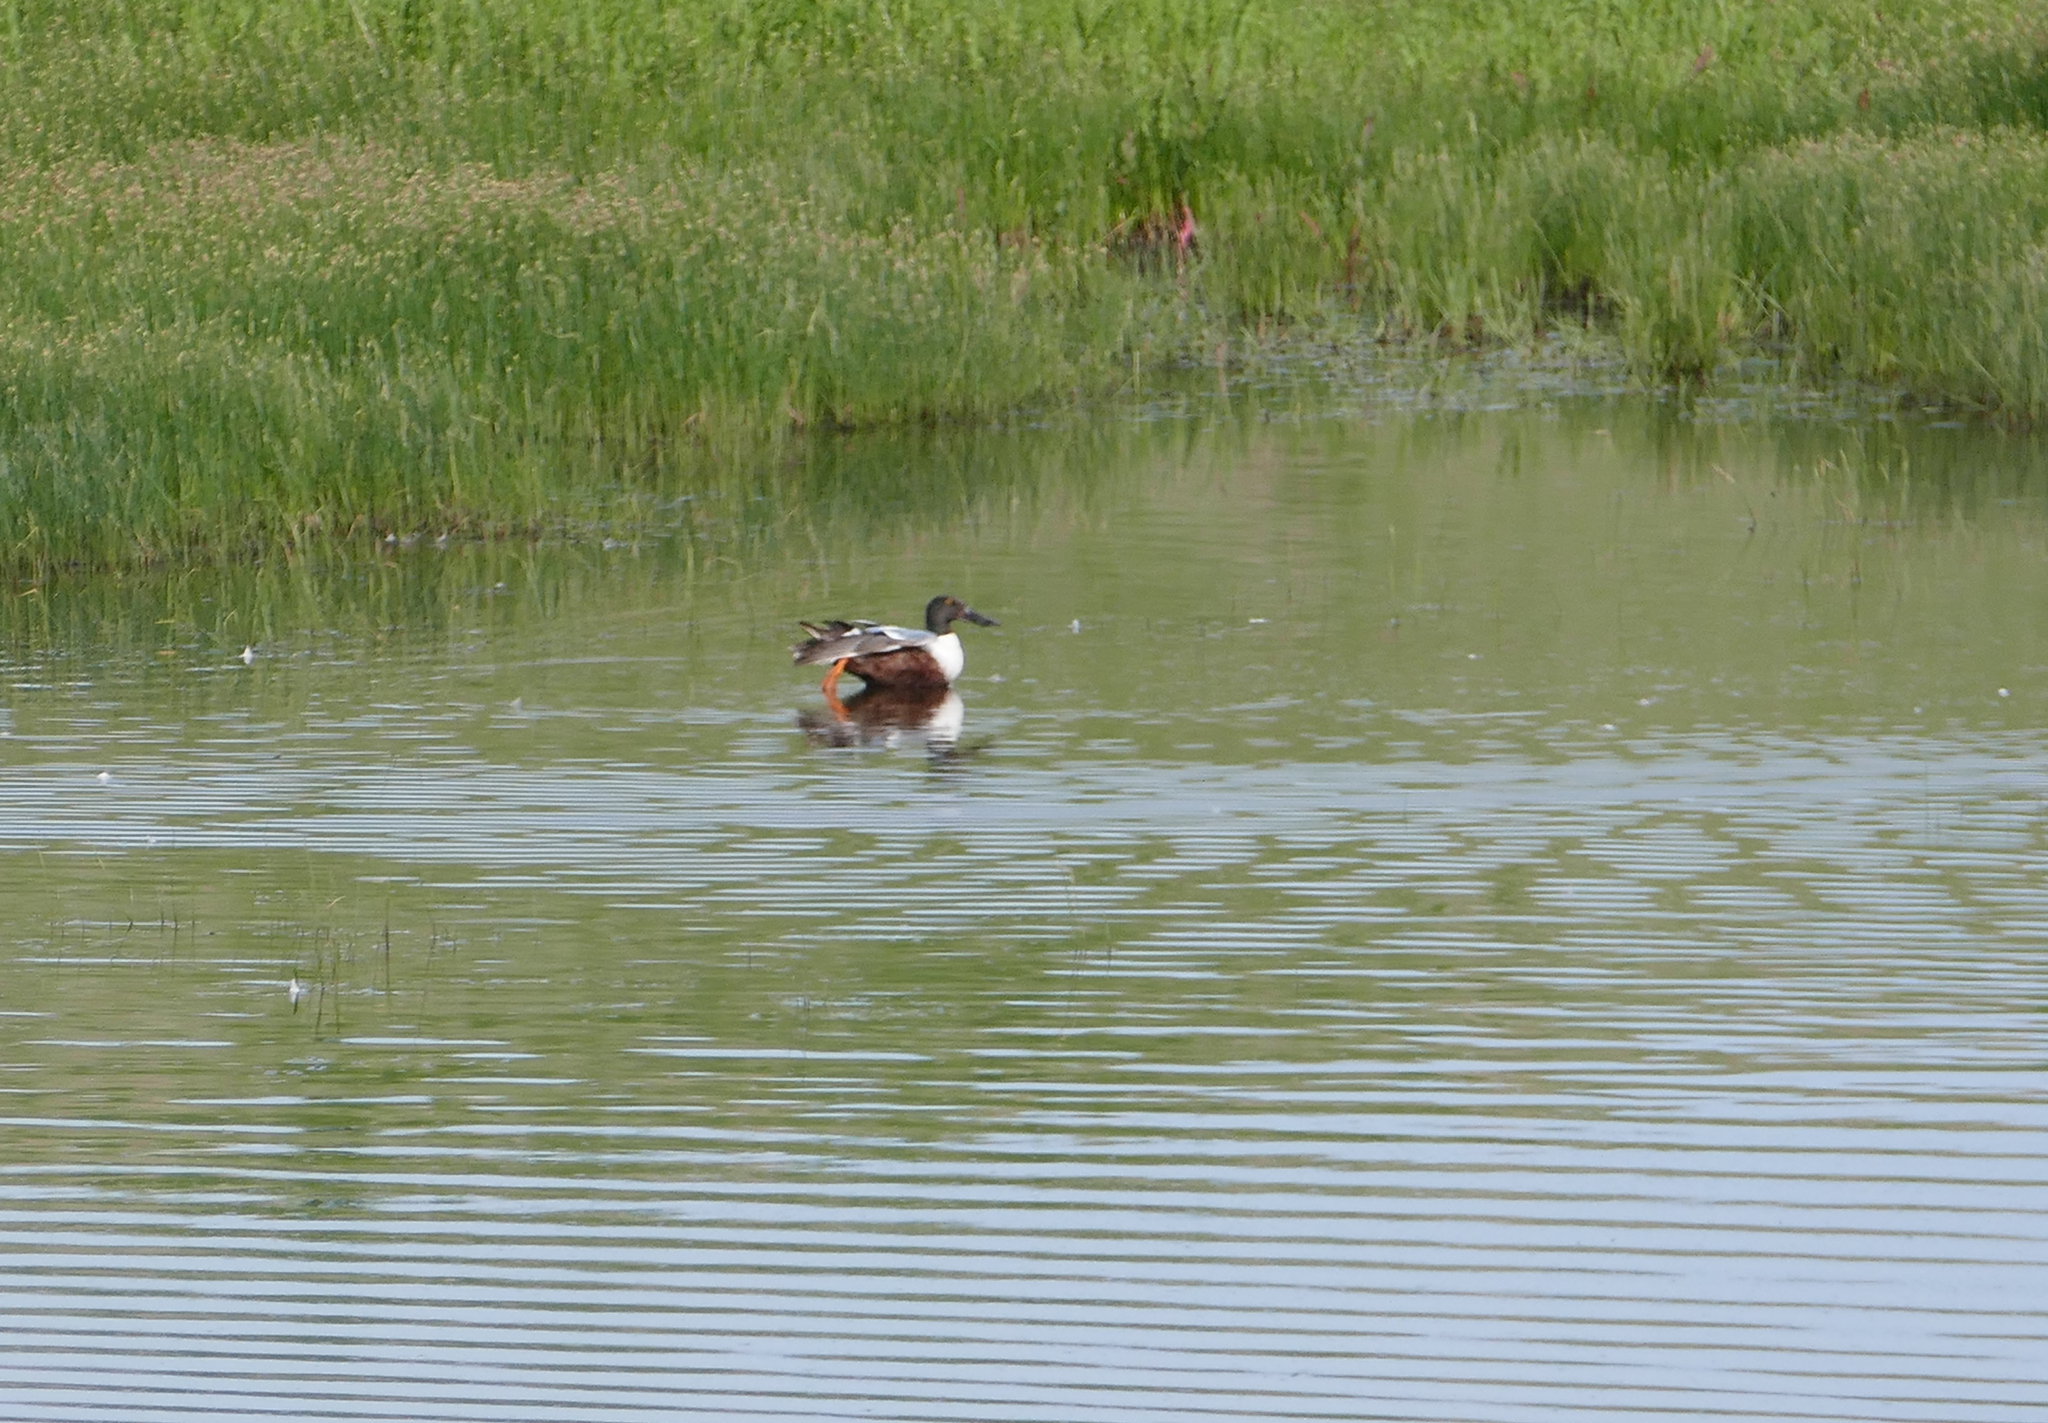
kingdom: Animalia
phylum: Chordata
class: Aves
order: Anseriformes
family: Anatidae
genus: Spatula
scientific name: Spatula clypeata
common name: Northern shoveler
